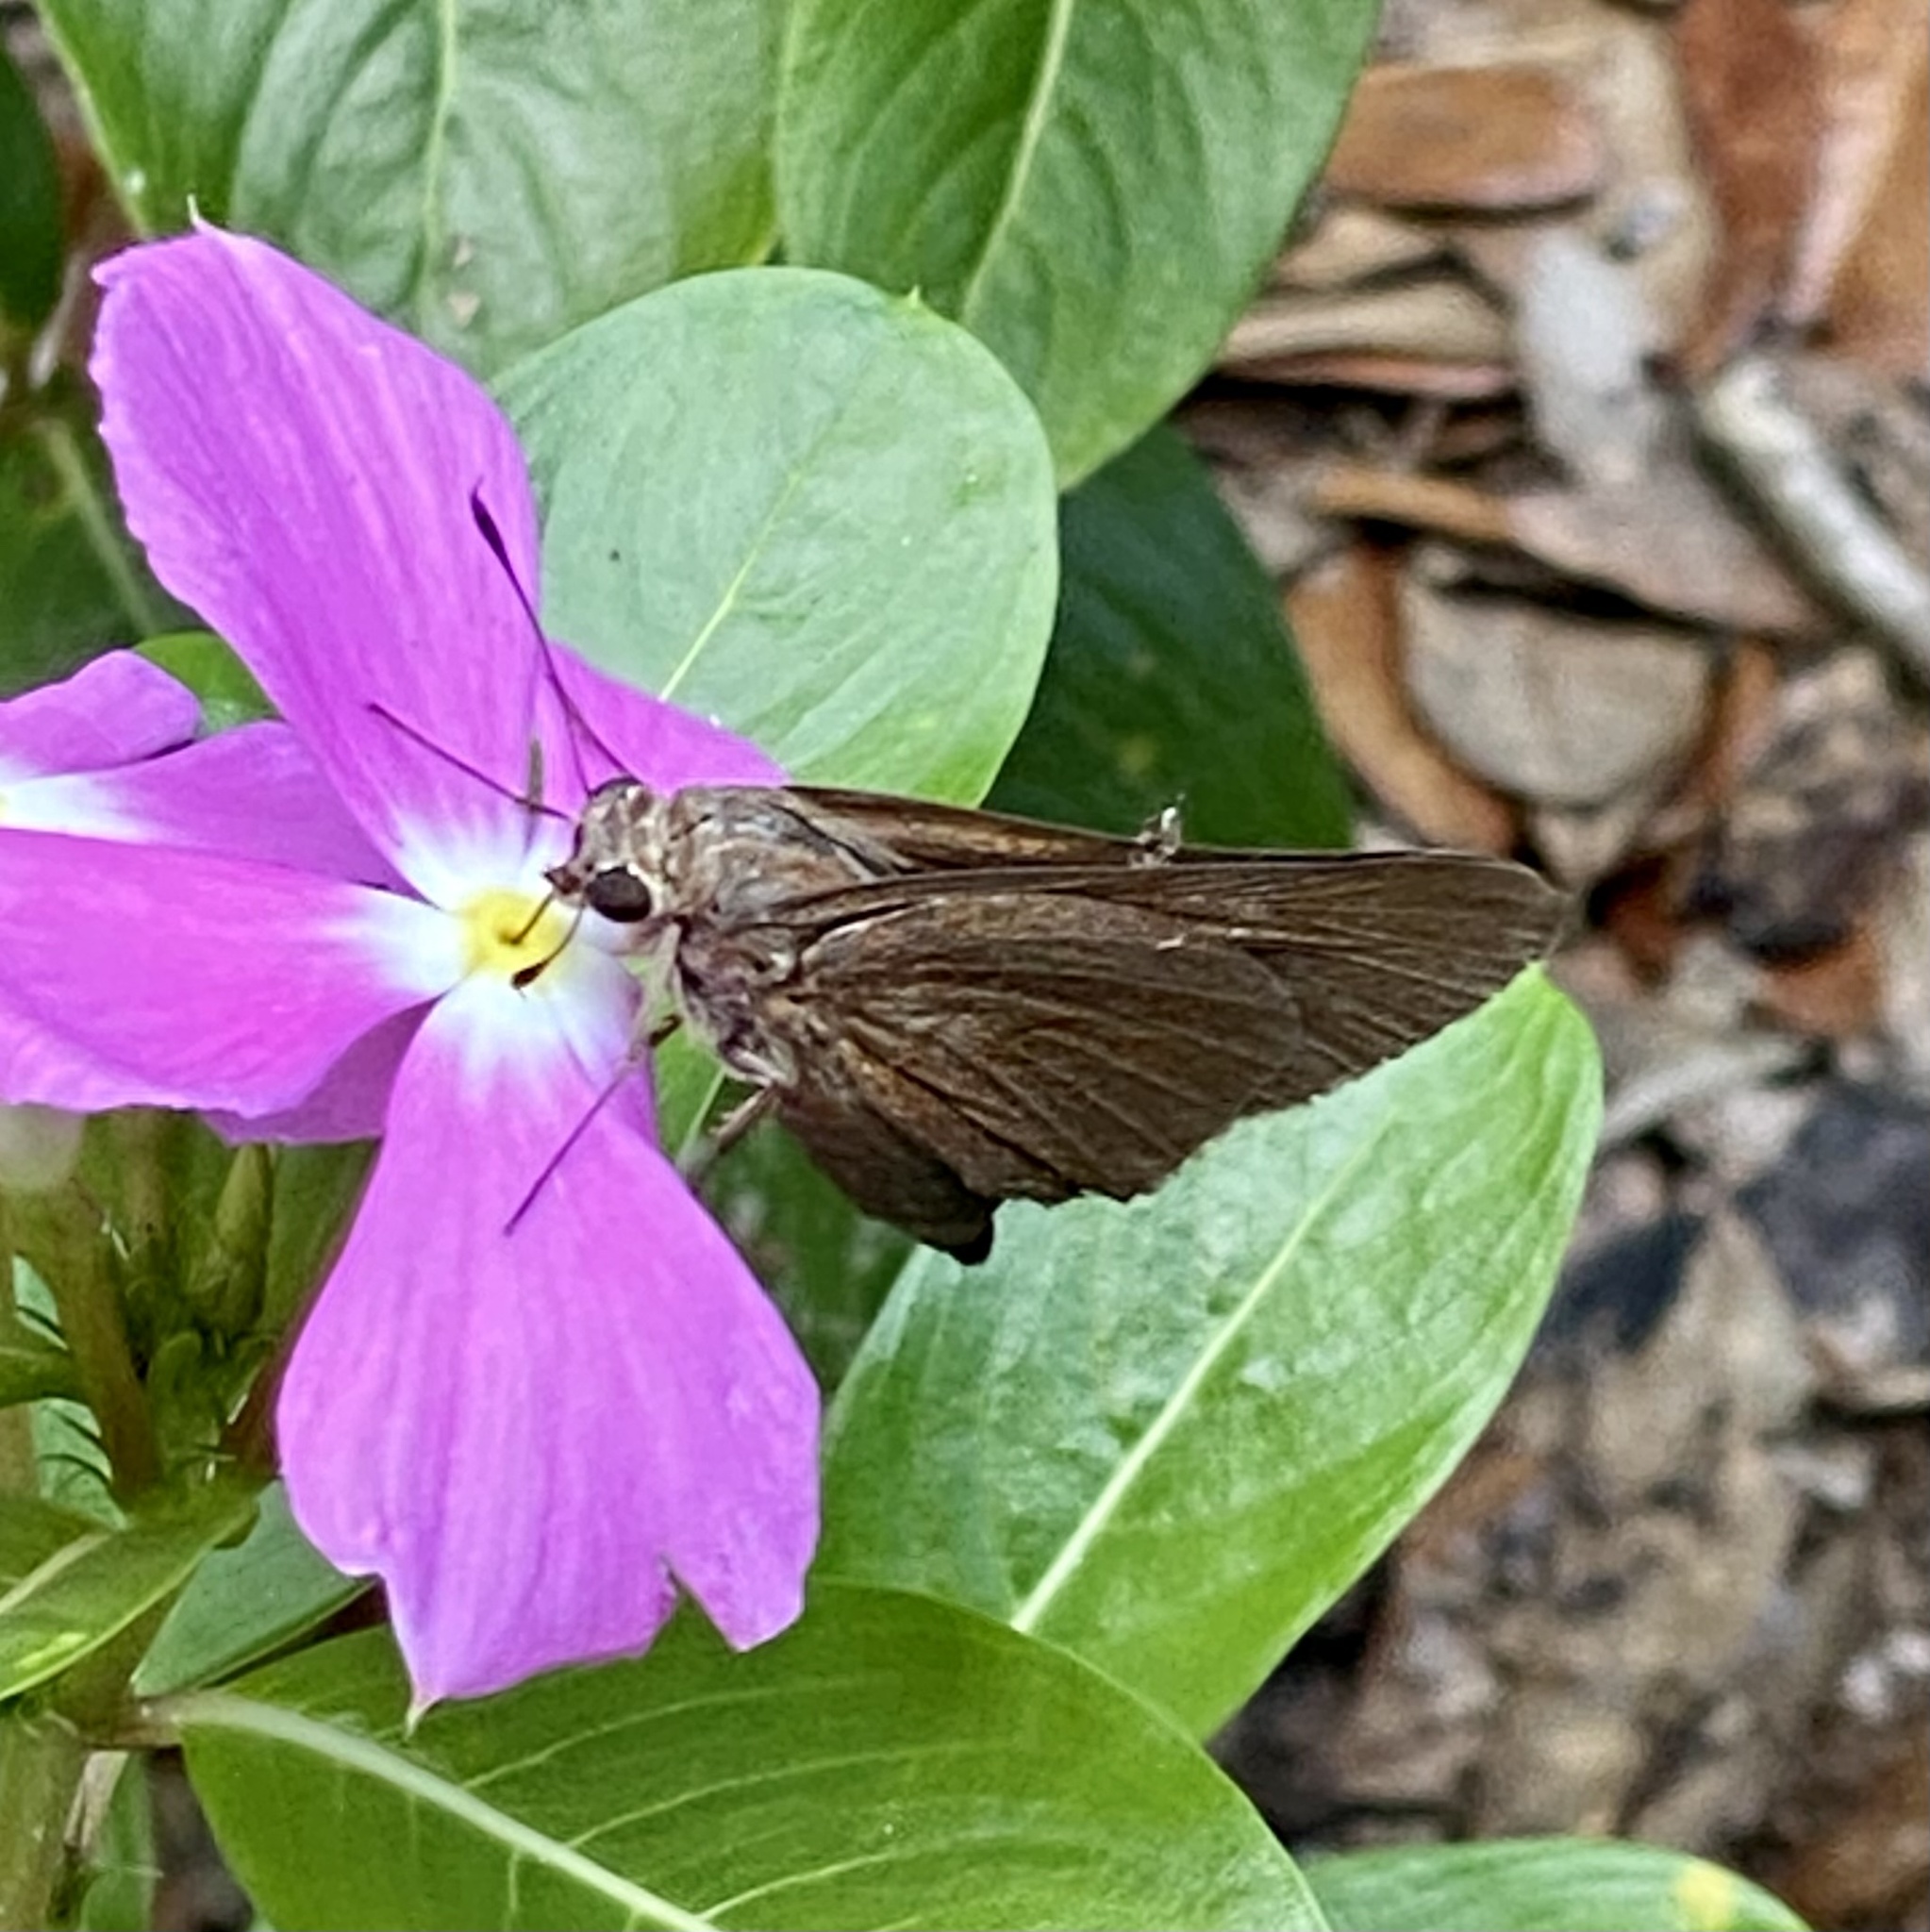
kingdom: Animalia
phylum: Arthropoda
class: Insecta
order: Lepidoptera
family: Hesperiidae
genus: Asbolis
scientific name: Asbolis capucinus
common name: Monk skipper
